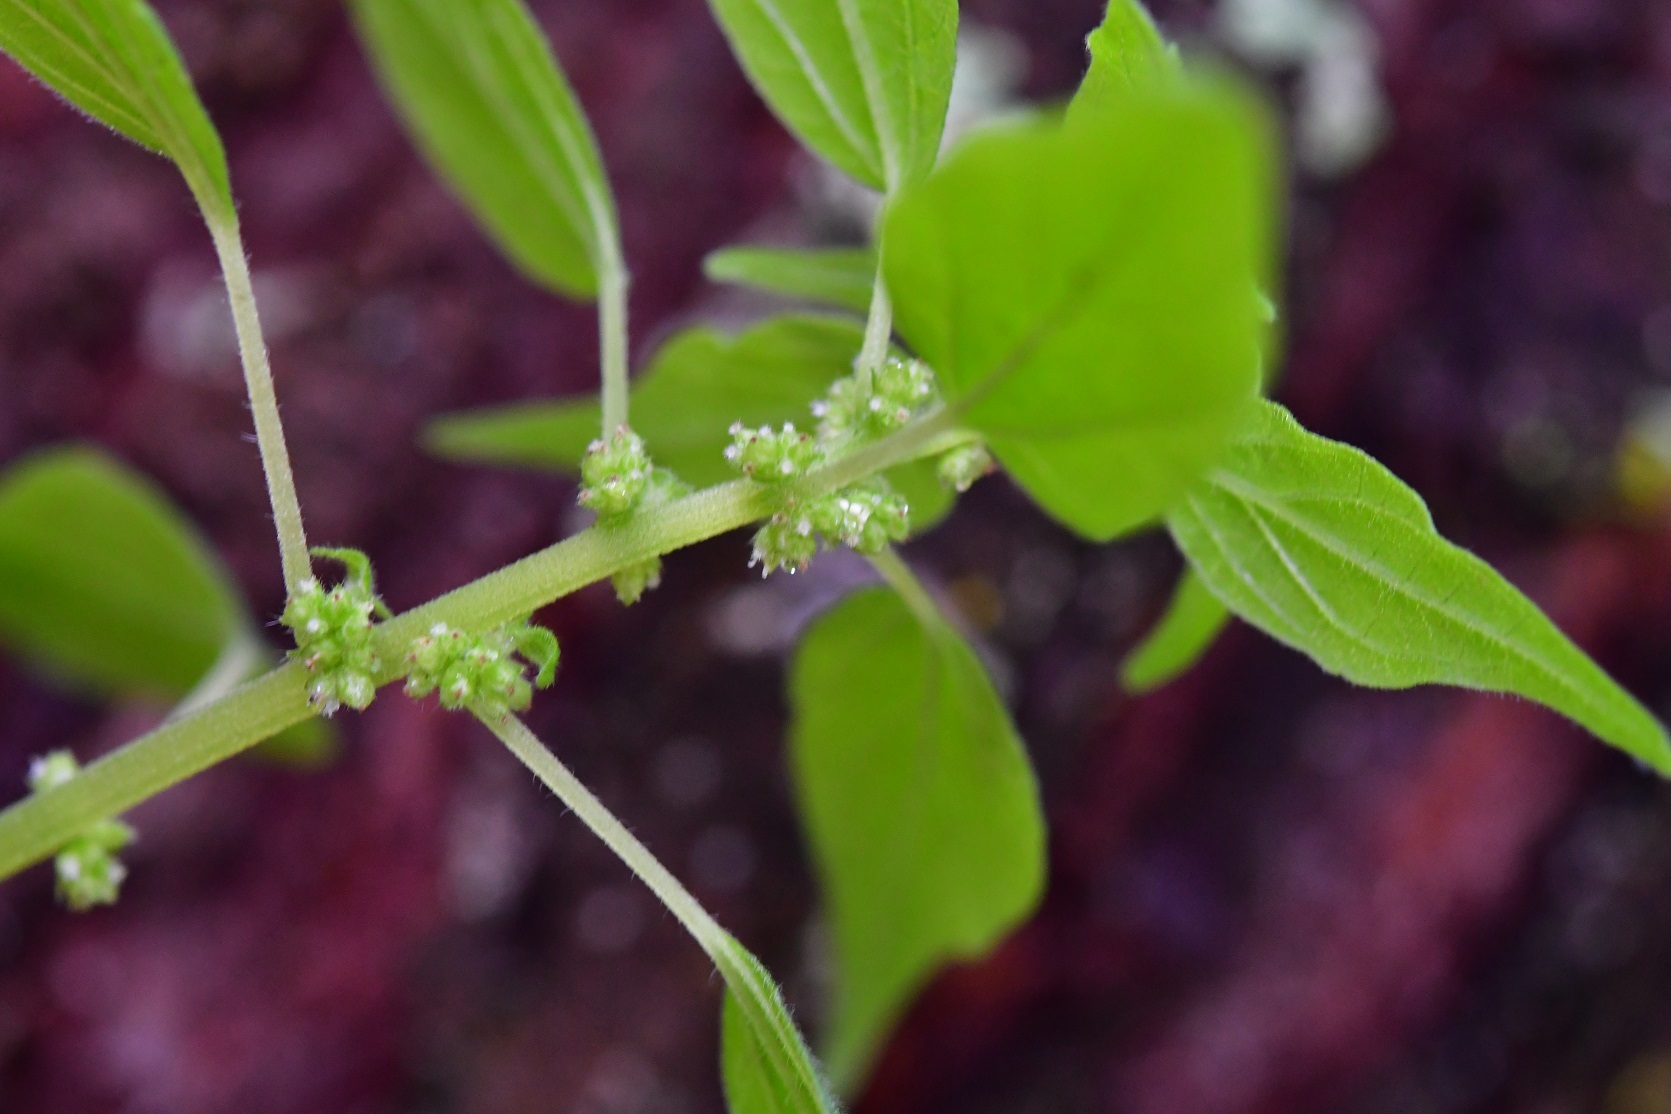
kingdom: Plantae
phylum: Tracheophyta
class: Magnoliopsida
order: Rosales
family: Urticaceae
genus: Parietaria
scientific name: Parietaria debilis
